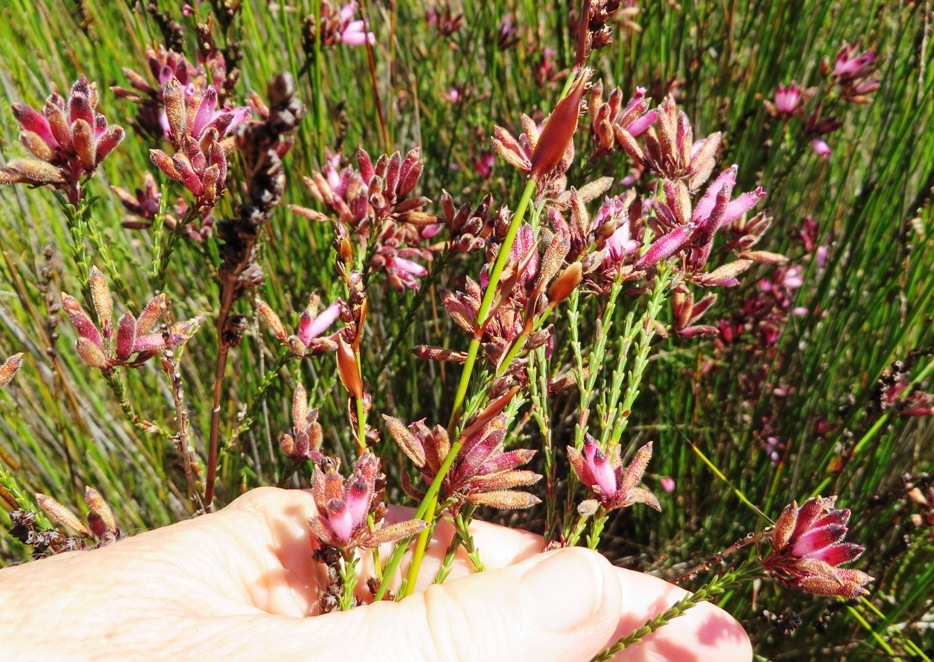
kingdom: Plantae
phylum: Tracheophyta
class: Magnoliopsida
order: Ericales
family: Ericaceae
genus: Erica
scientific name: Erica cristata
